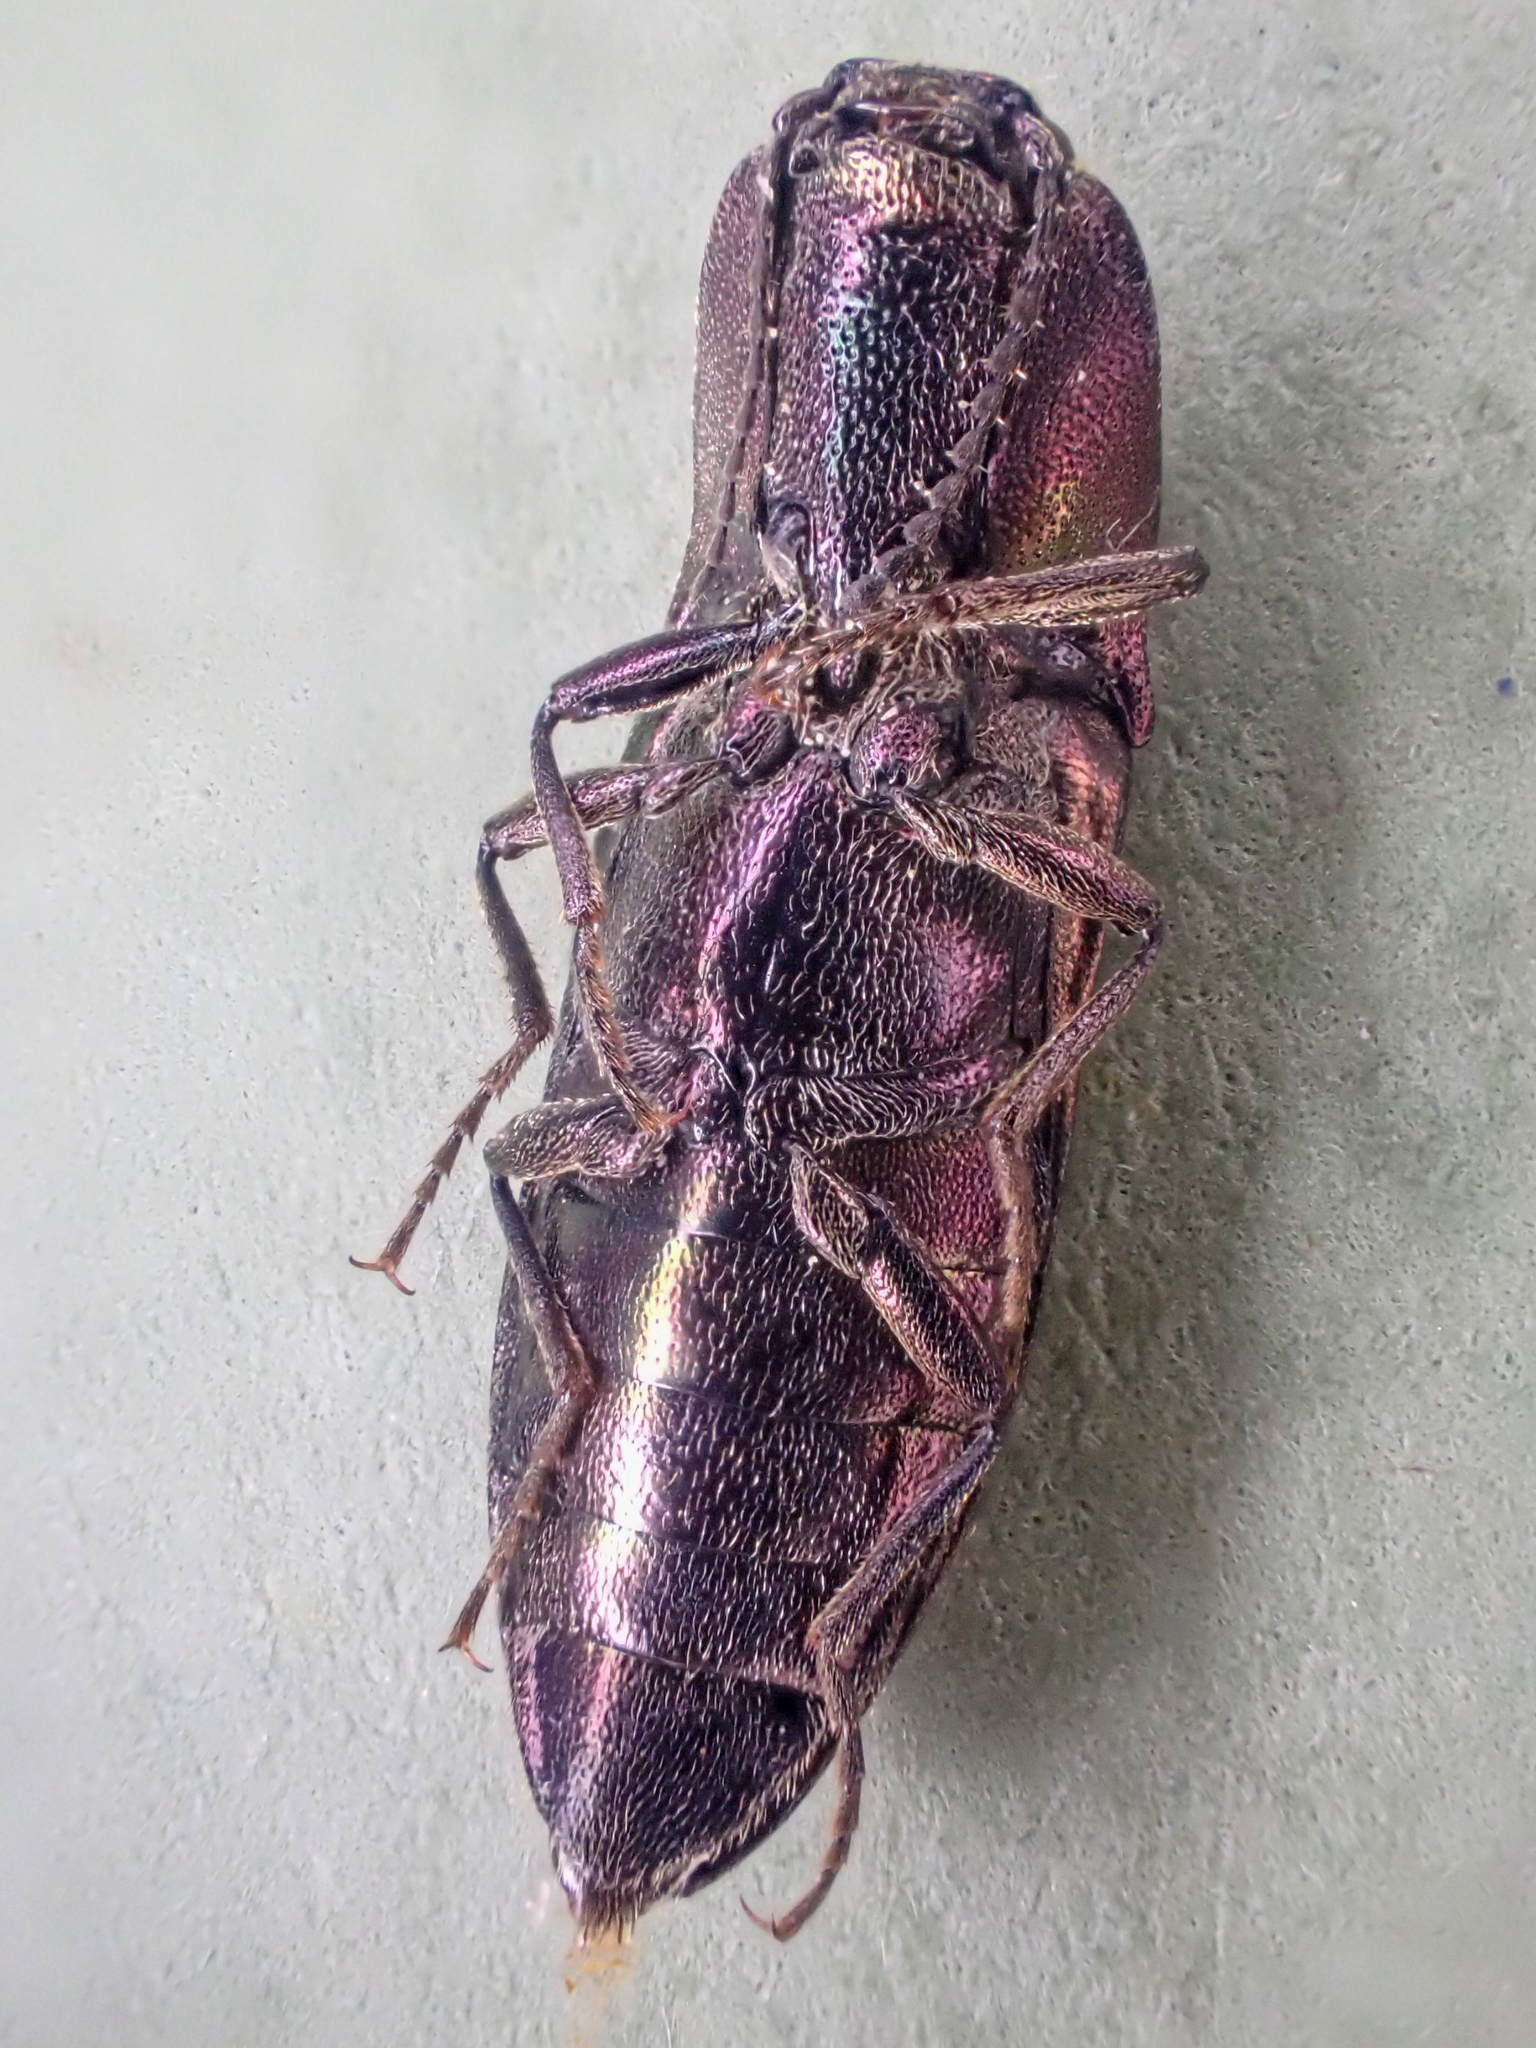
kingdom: Animalia
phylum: Arthropoda
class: Insecta
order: Coleoptera
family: Elateridae
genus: Nitidolimonius
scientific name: Nitidolimonius resplendens
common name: Resplendent click beetle
